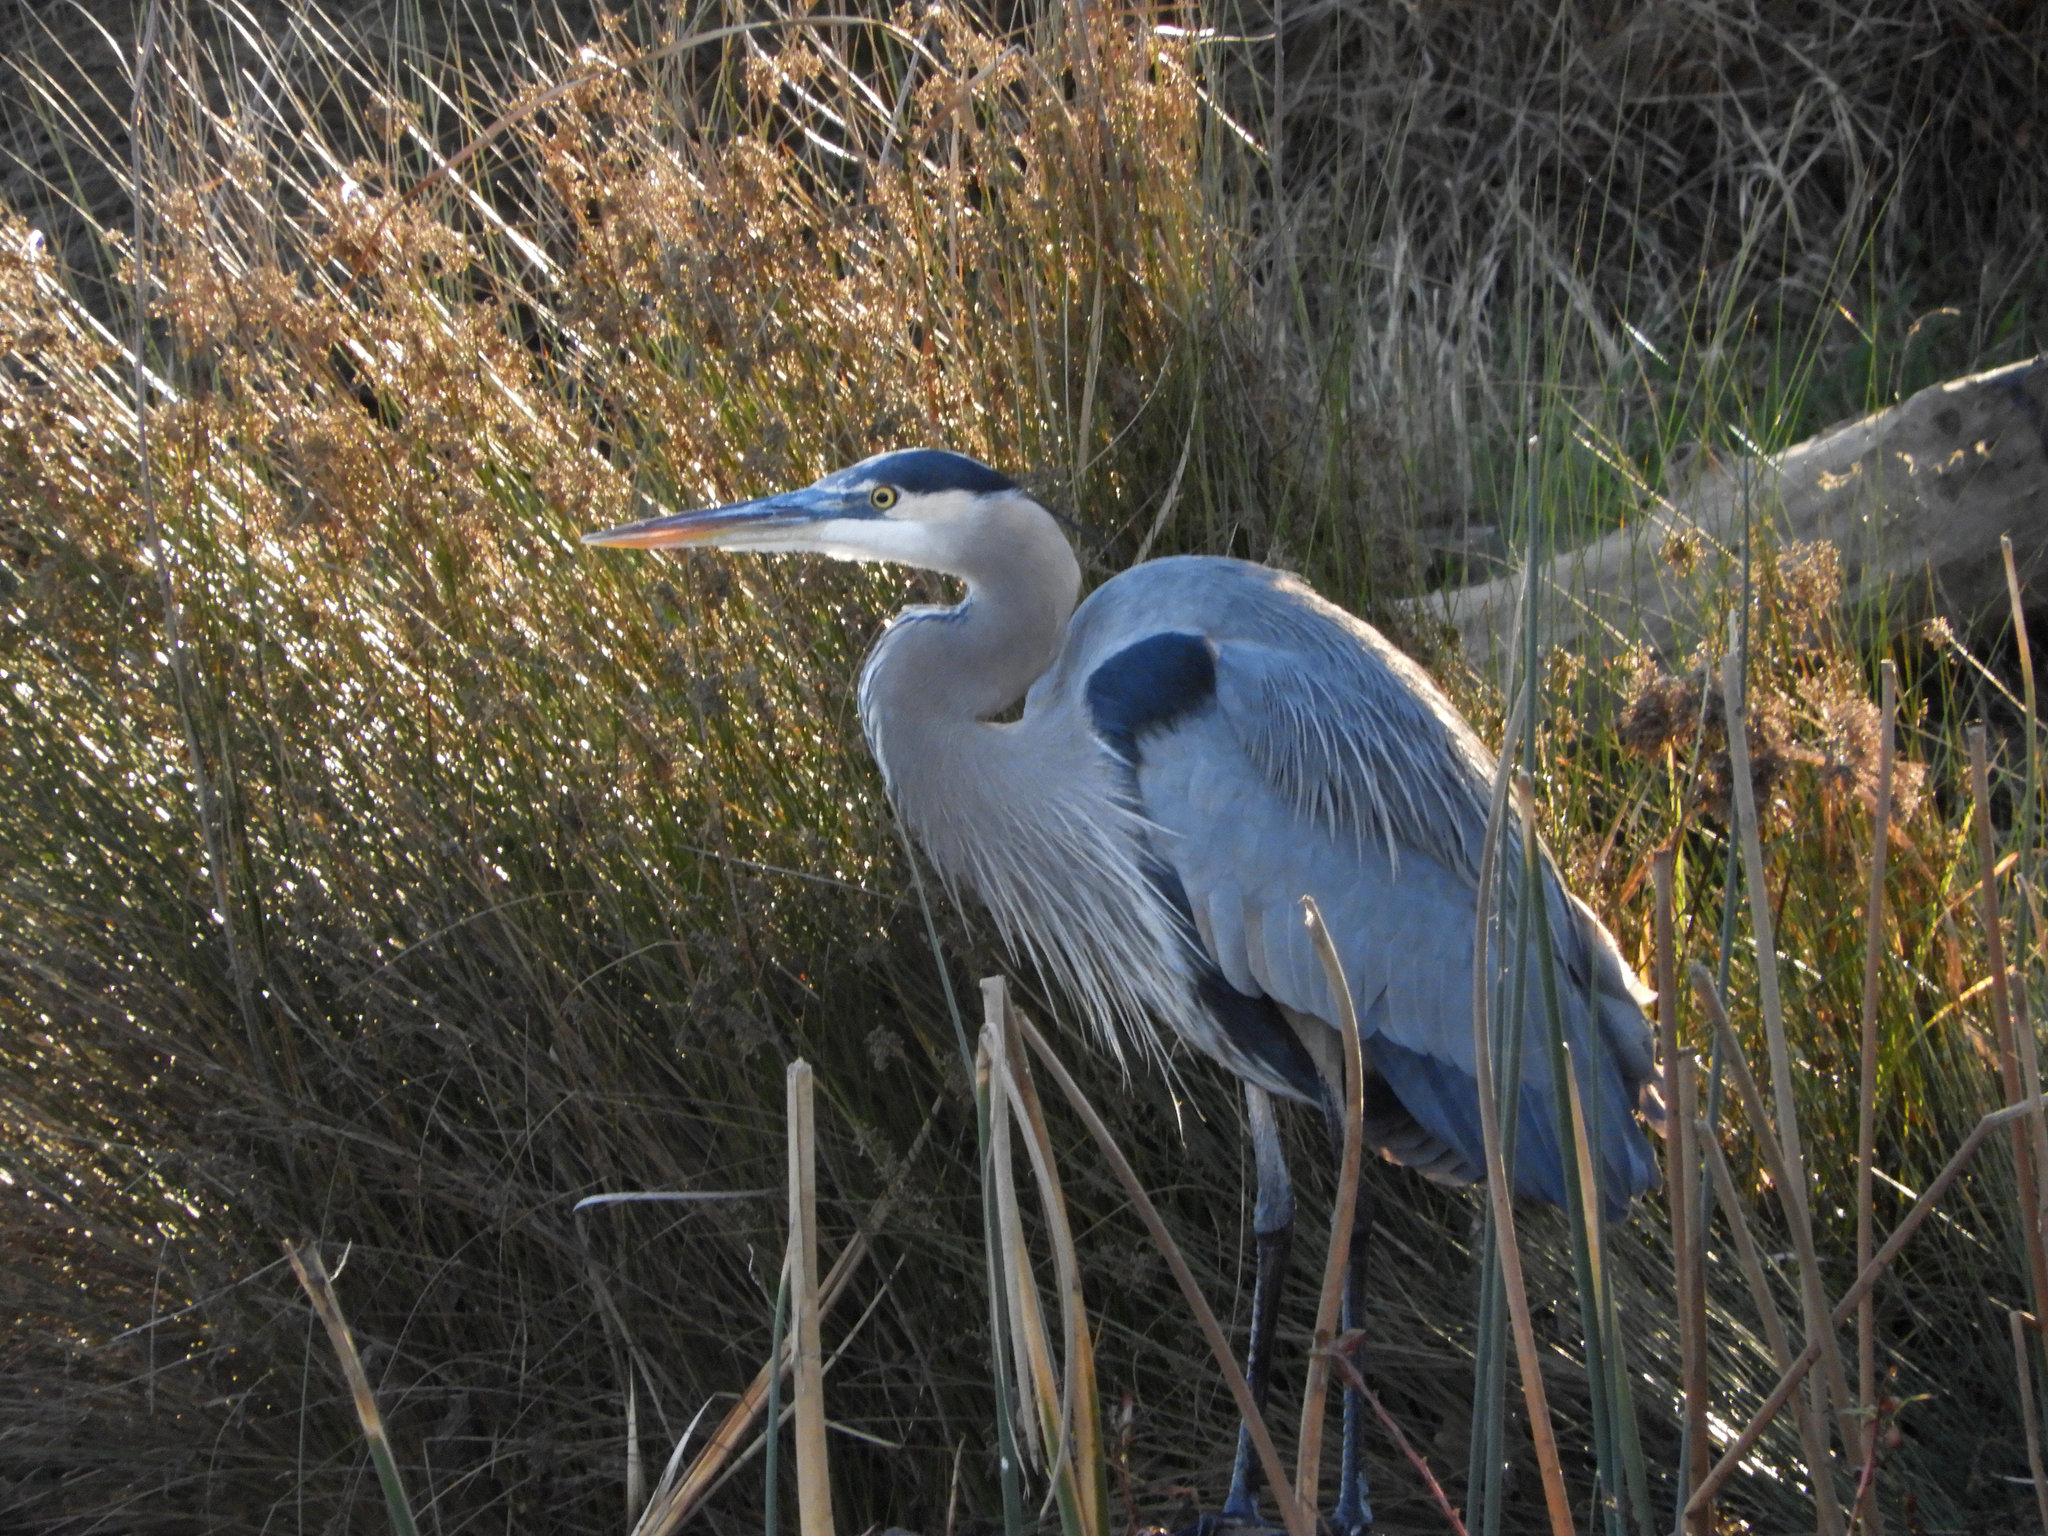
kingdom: Animalia
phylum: Chordata
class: Aves
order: Pelecaniformes
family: Ardeidae
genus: Ardea
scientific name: Ardea herodias
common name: Great blue heron
